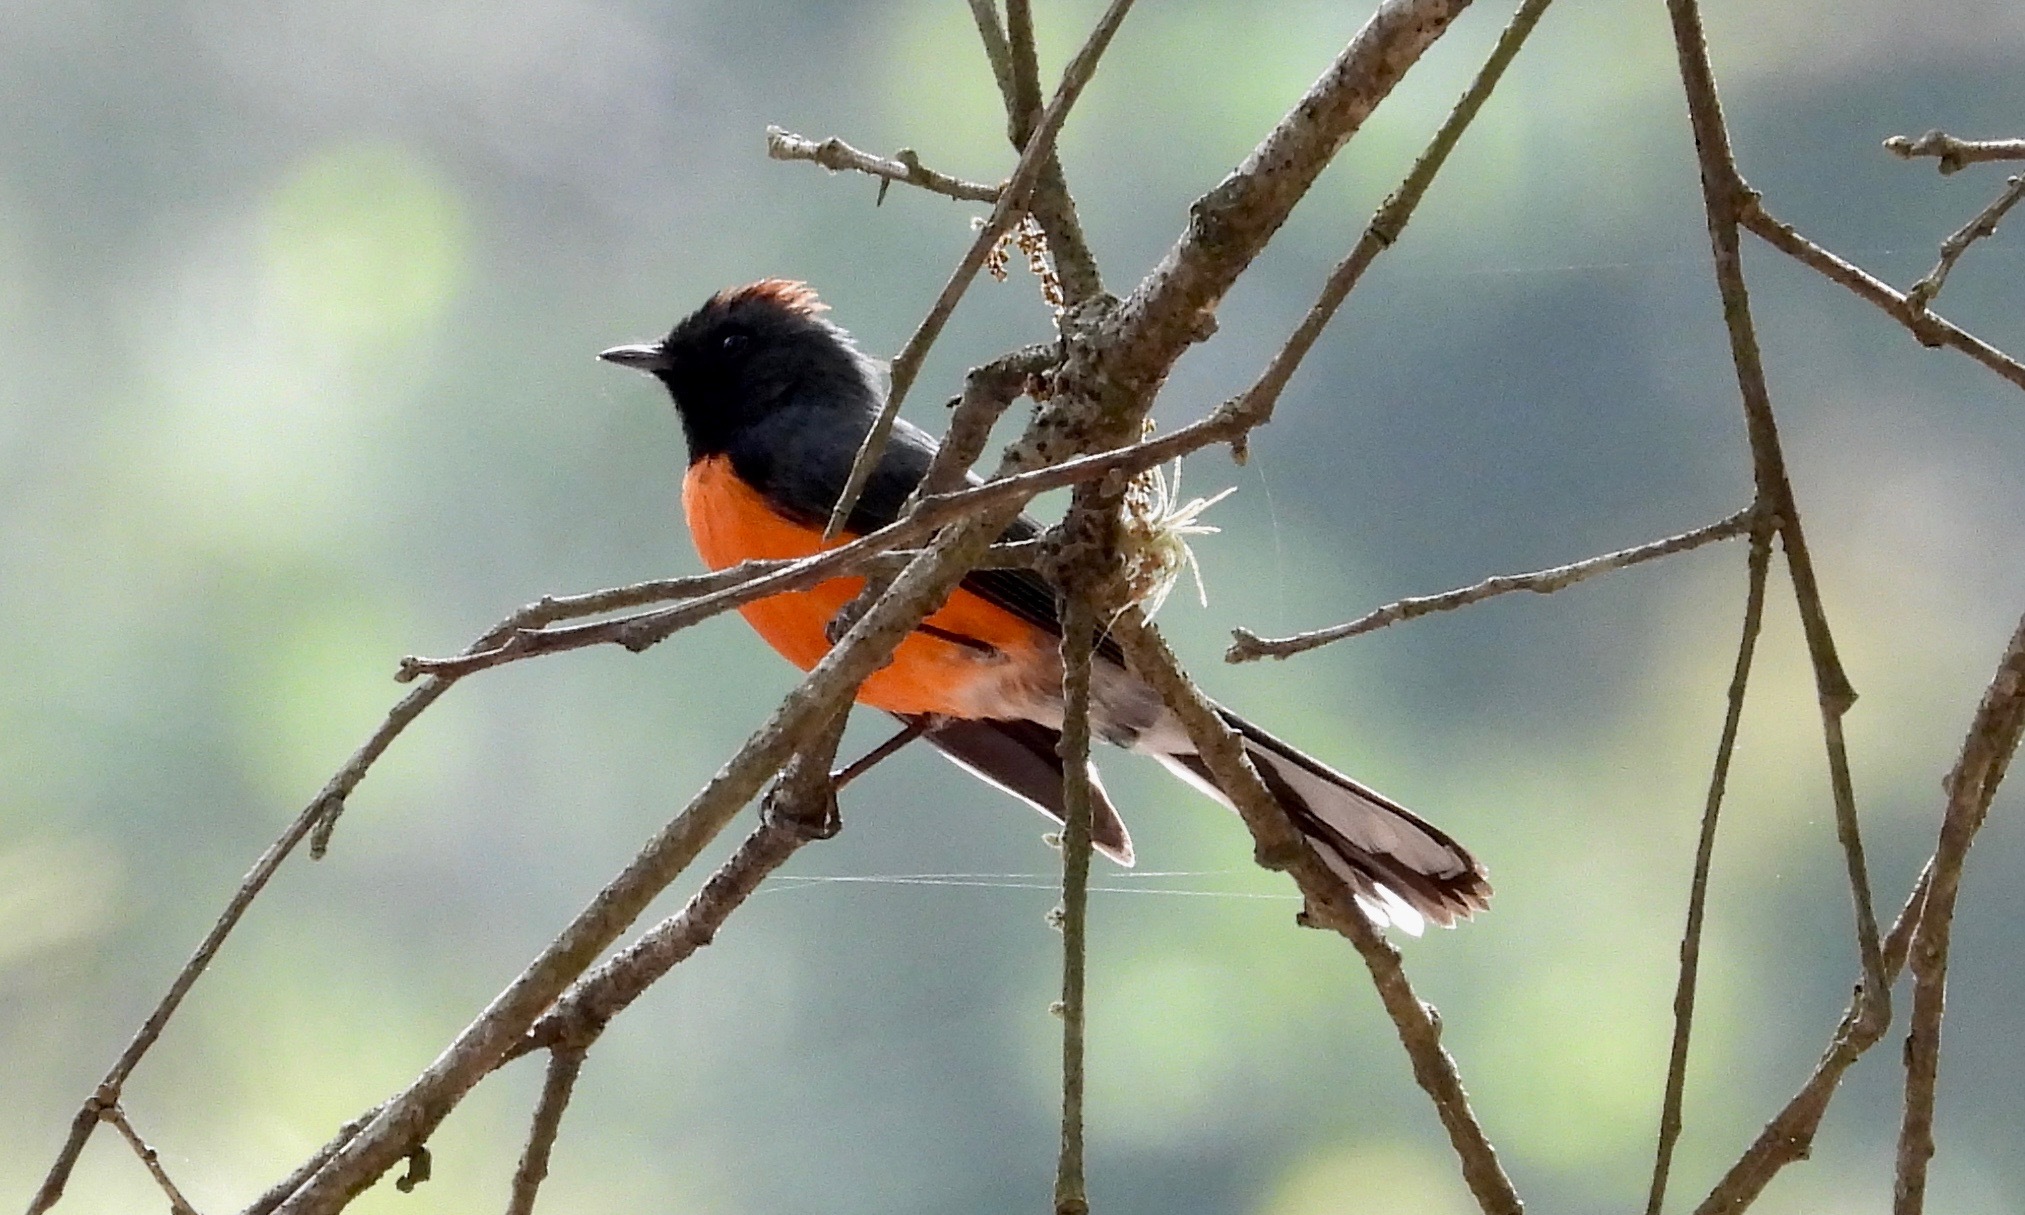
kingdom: Animalia
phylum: Chordata
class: Aves
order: Passeriformes
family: Parulidae
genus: Myioborus
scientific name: Myioborus miniatus
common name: Slate-throated redstart
